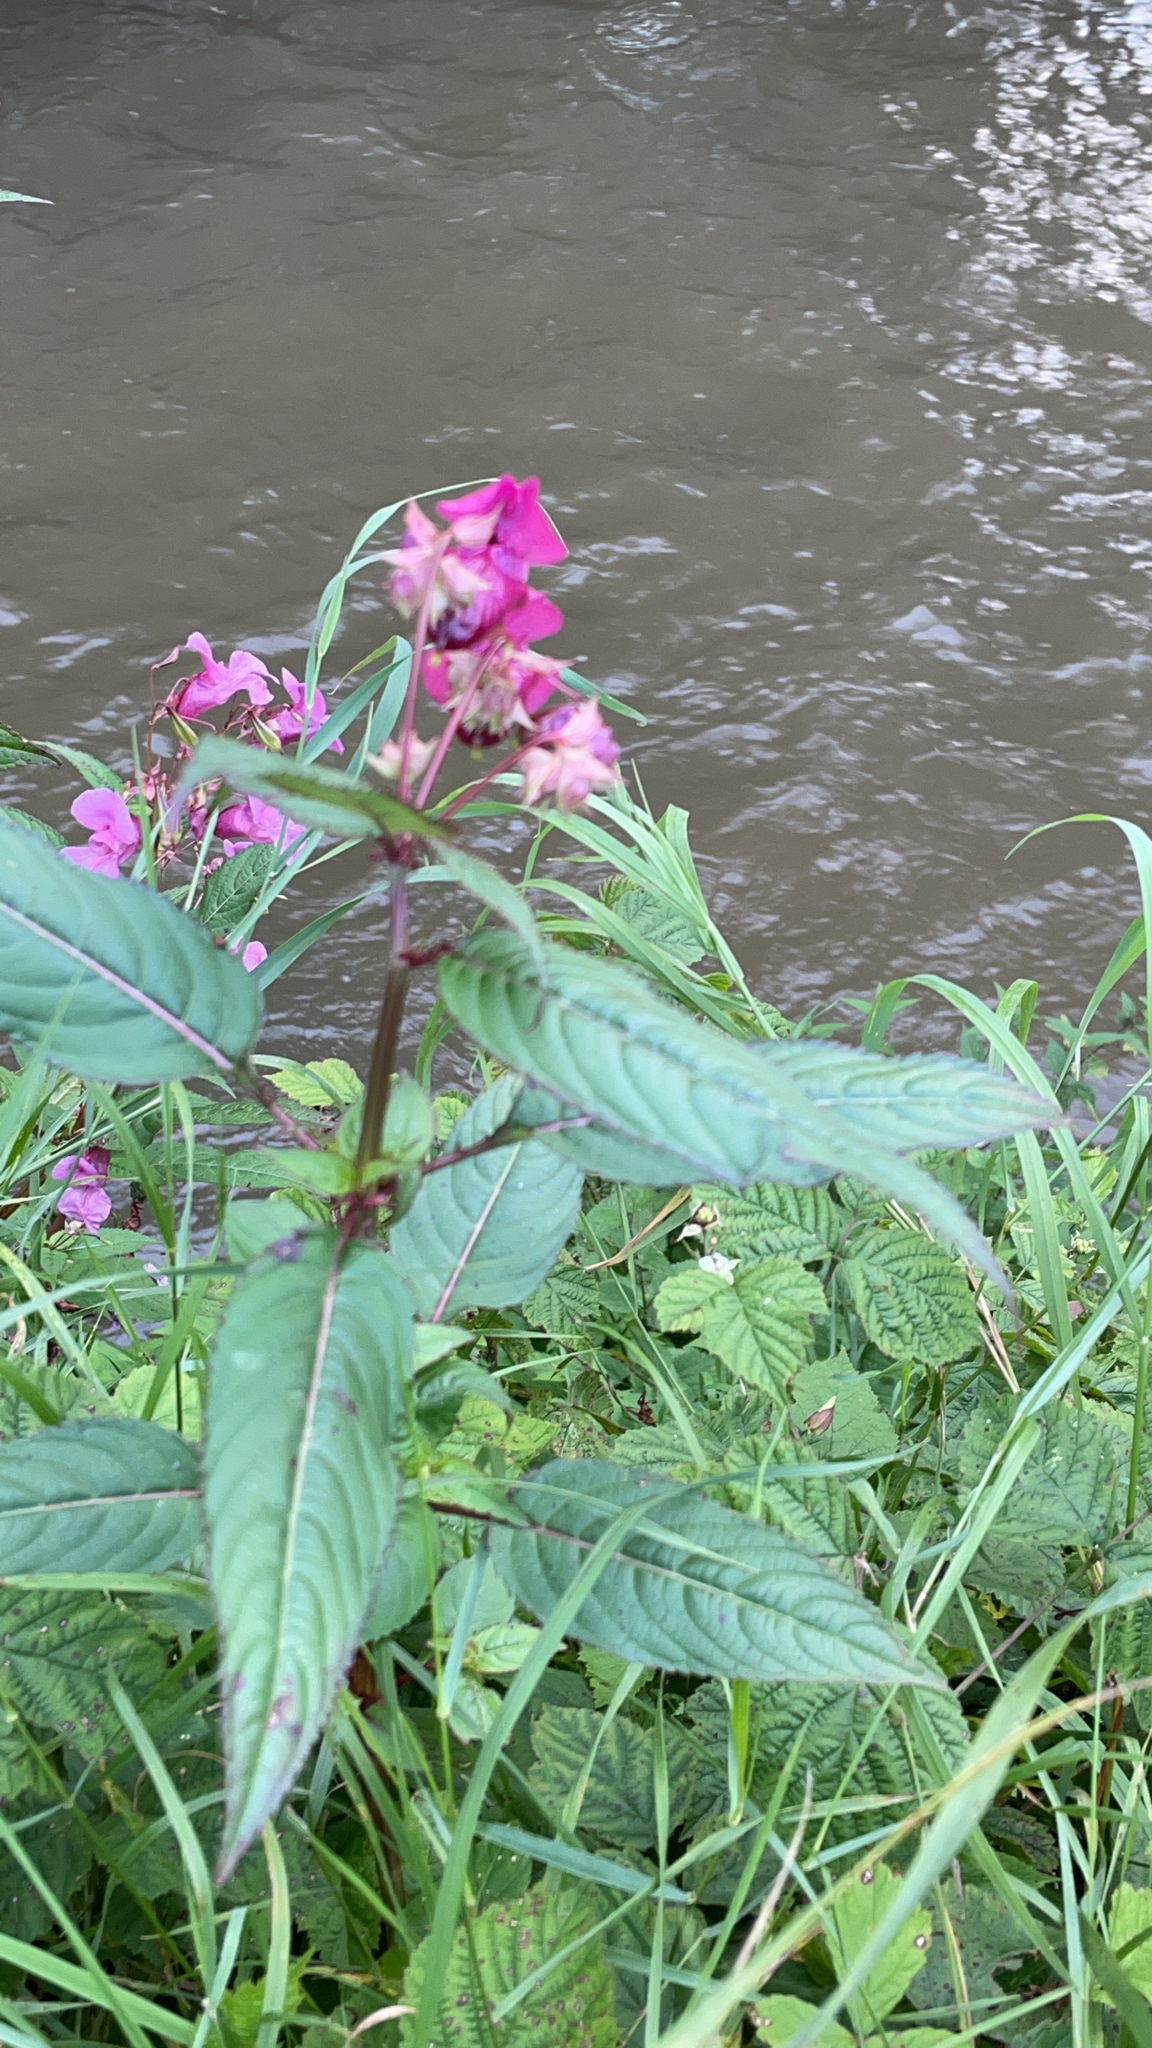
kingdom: Plantae
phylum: Tracheophyta
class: Magnoliopsida
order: Ericales
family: Balsaminaceae
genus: Impatiens
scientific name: Impatiens glandulifera
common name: Himalayan balsam
